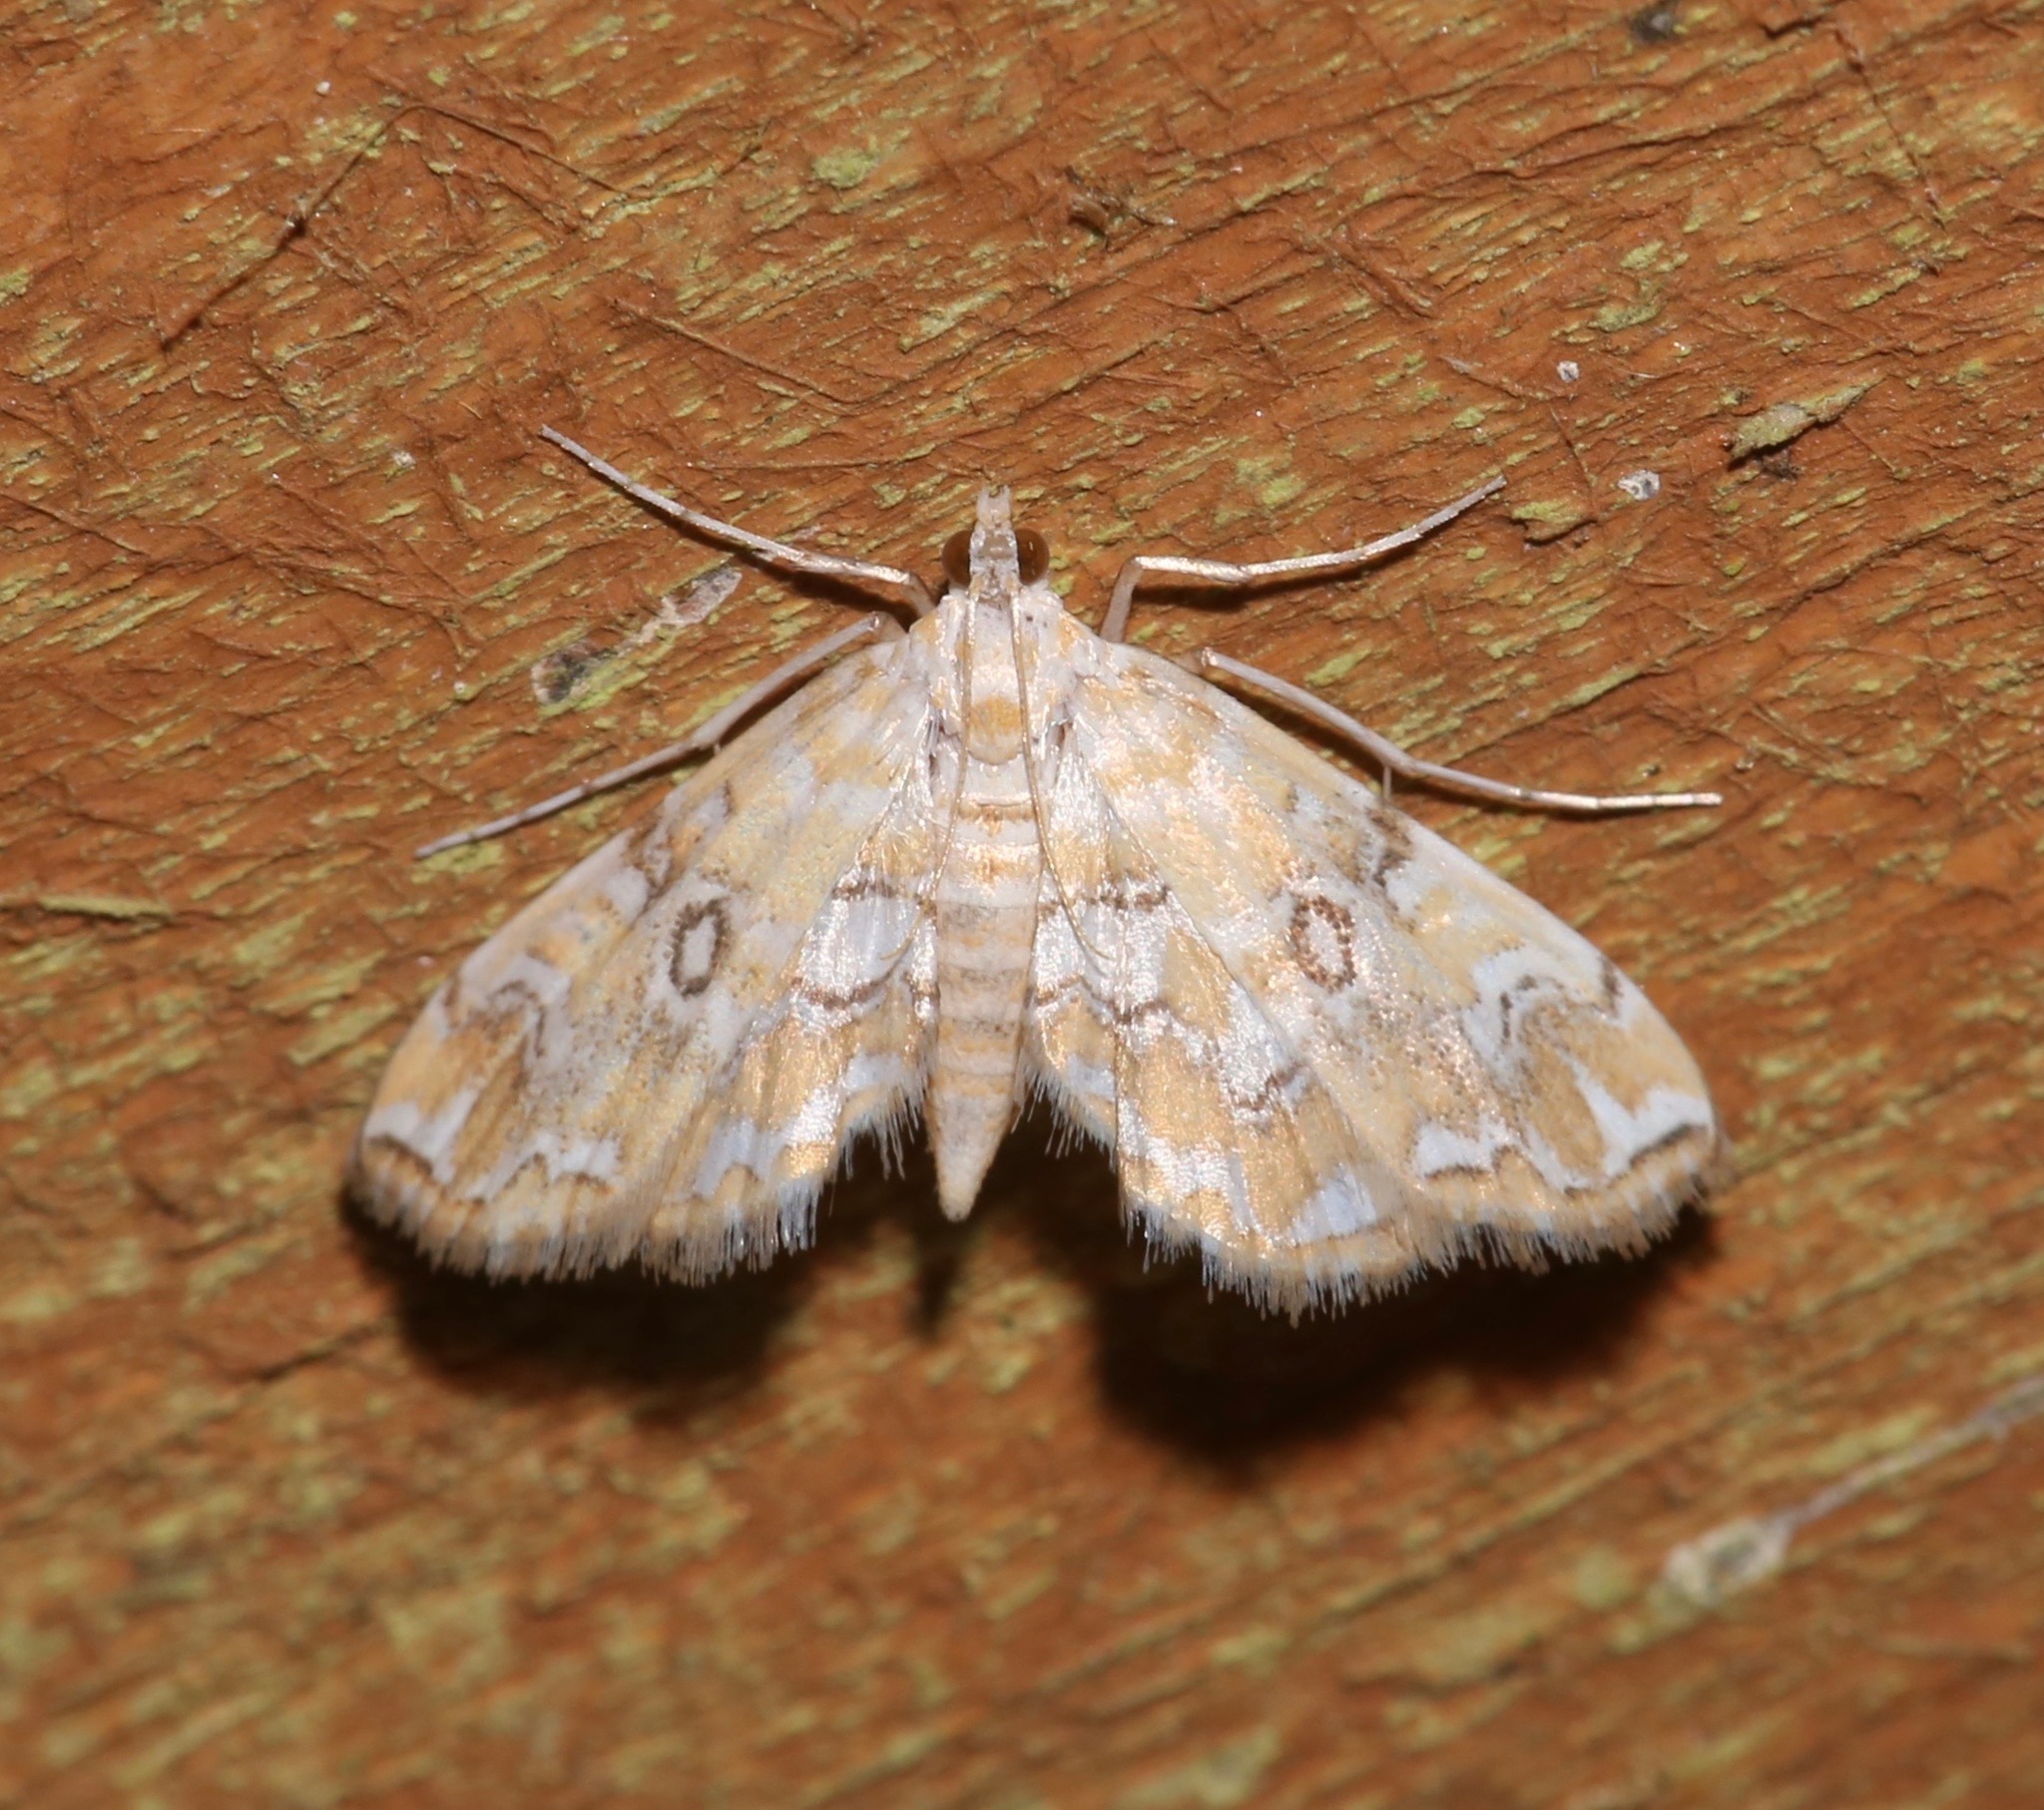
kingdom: Animalia
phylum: Arthropoda
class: Insecta
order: Lepidoptera
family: Crambidae
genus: Elophila
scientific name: Elophila icciusalis
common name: Pondside pyralid moth
